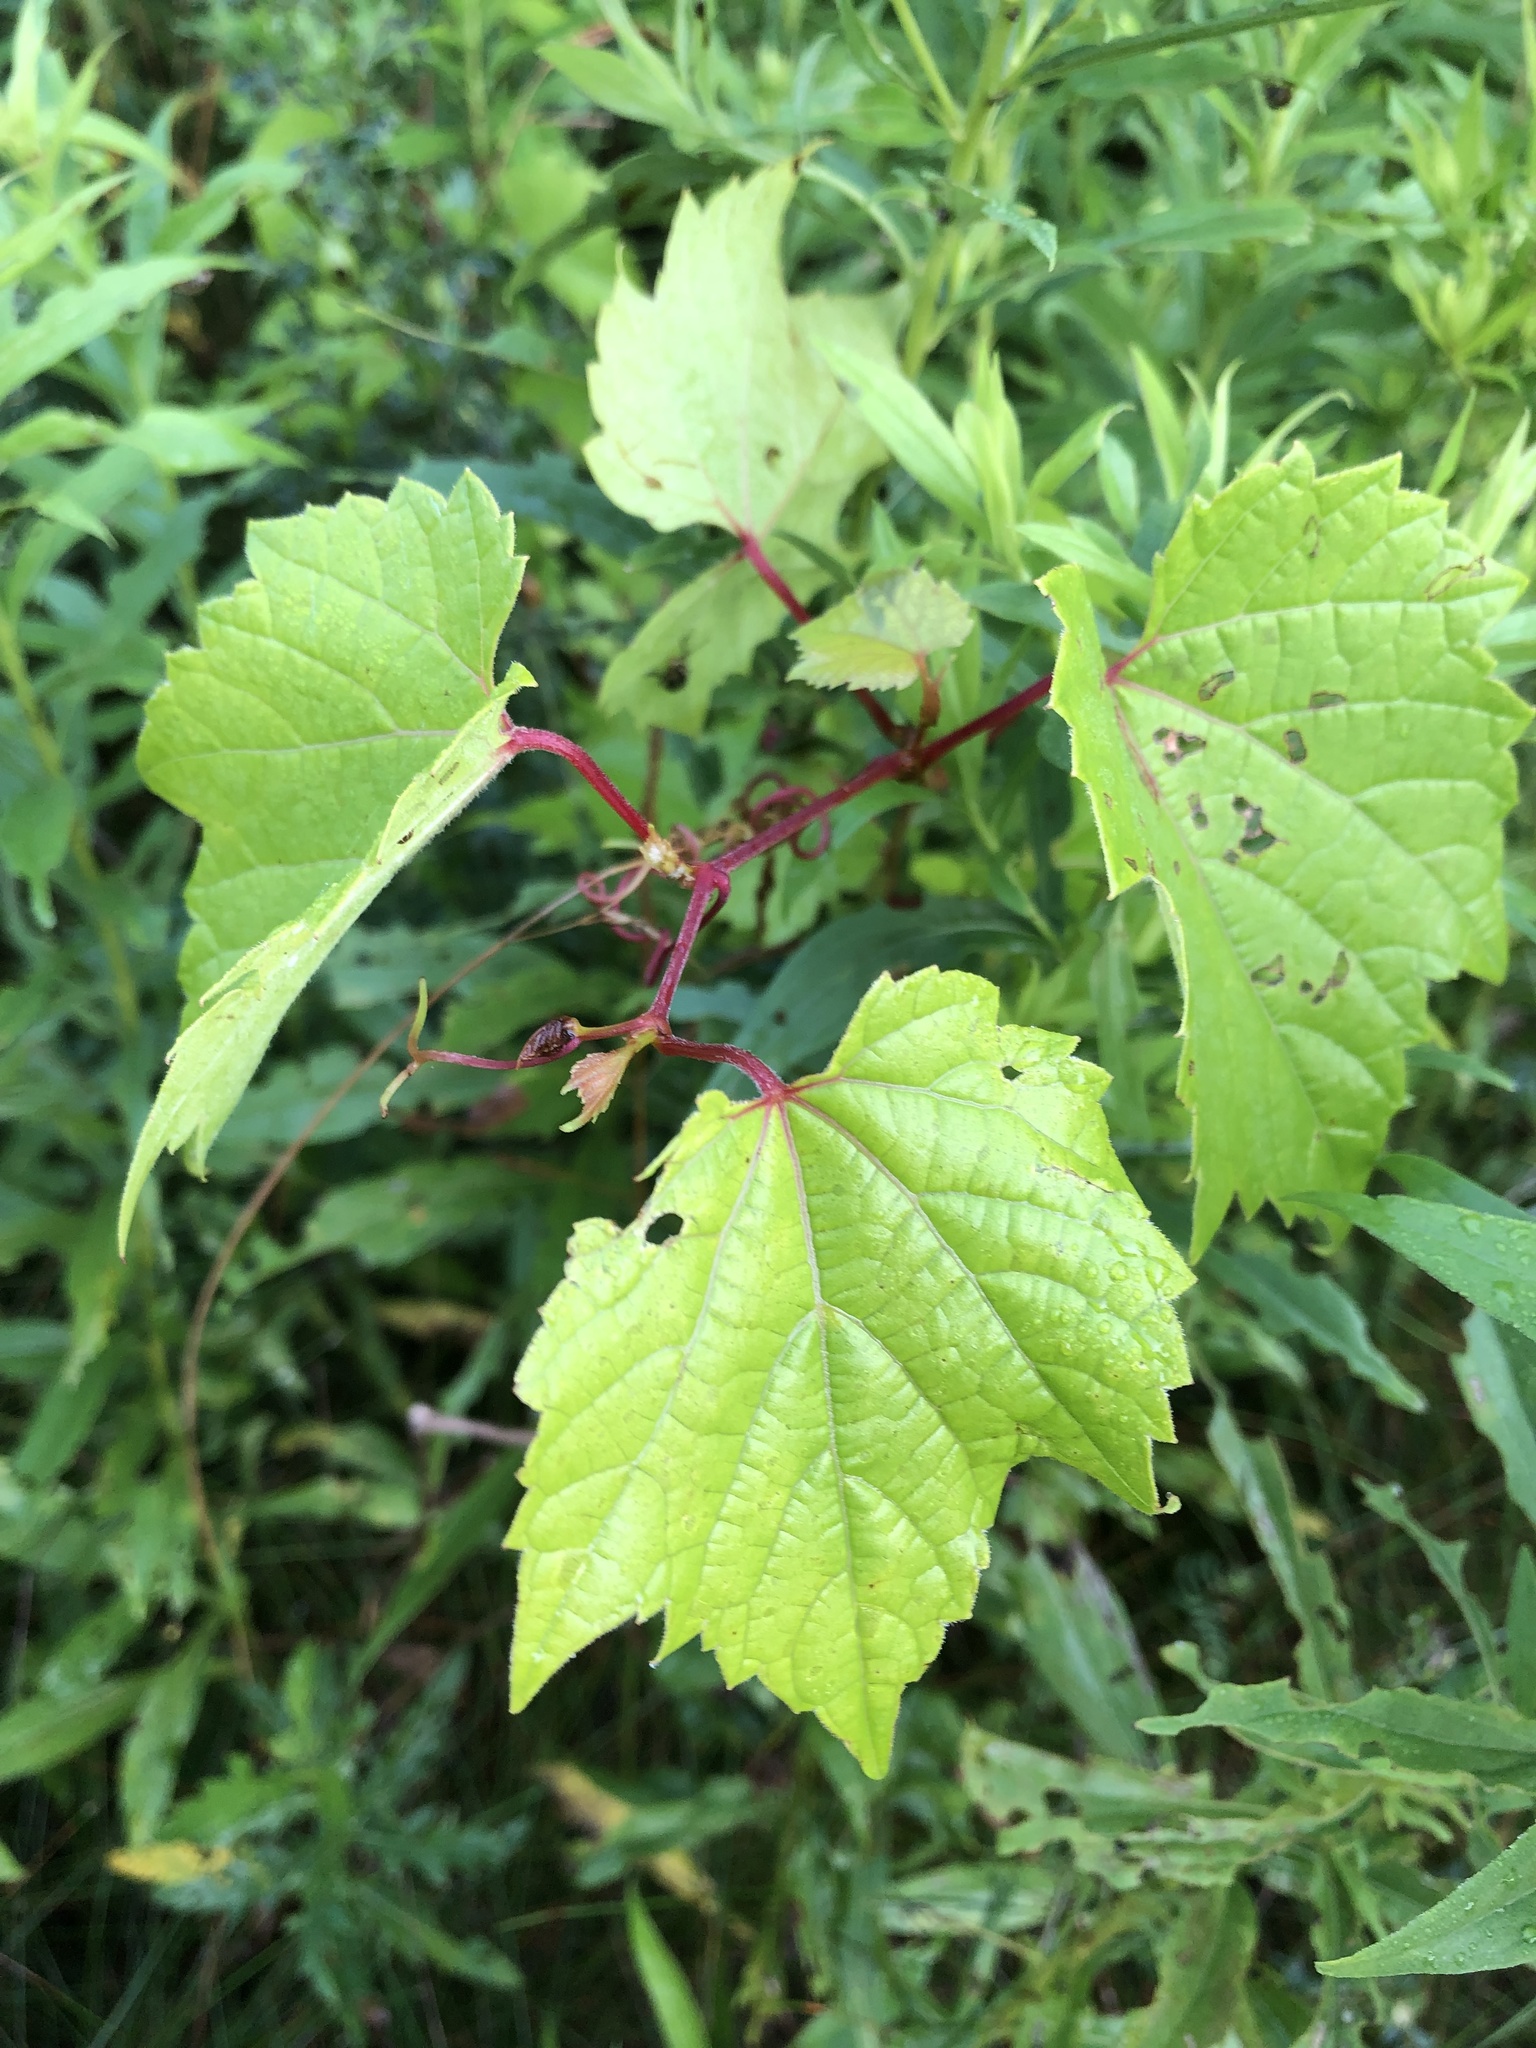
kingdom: Plantae
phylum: Tracheophyta
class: Magnoliopsida
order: Vitales
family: Vitaceae
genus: Vitis
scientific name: Vitis riparia
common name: Frost grape
